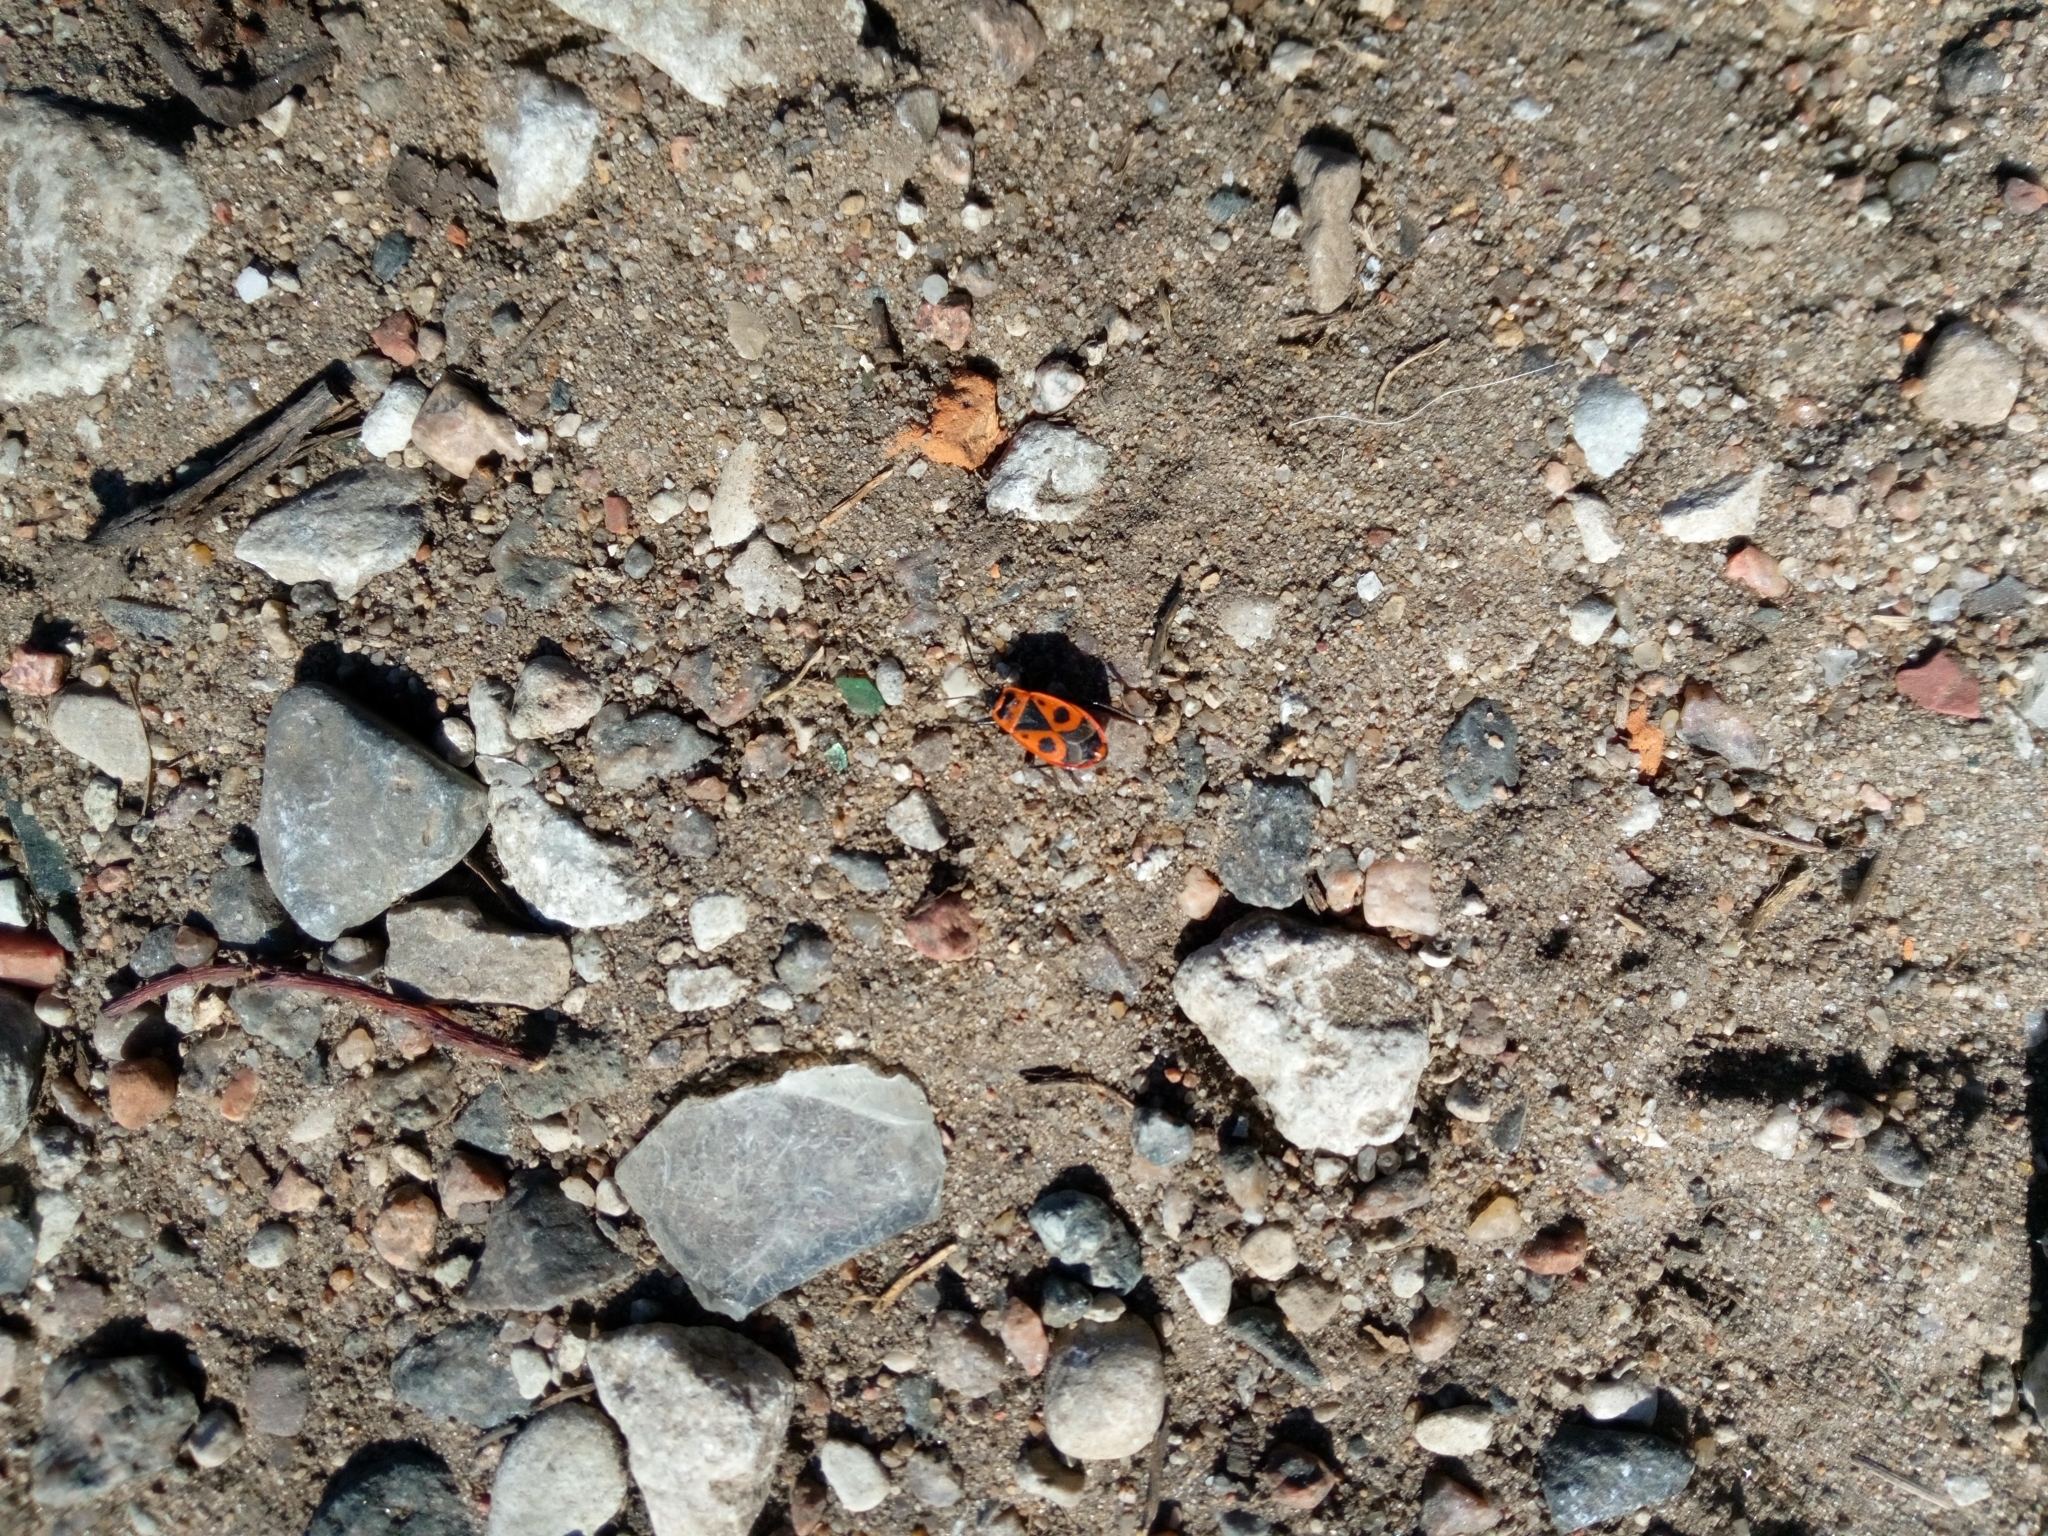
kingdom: Animalia
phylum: Arthropoda
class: Insecta
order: Hemiptera
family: Pyrrhocoridae
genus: Pyrrhocoris
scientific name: Pyrrhocoris apterus
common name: Firebug
